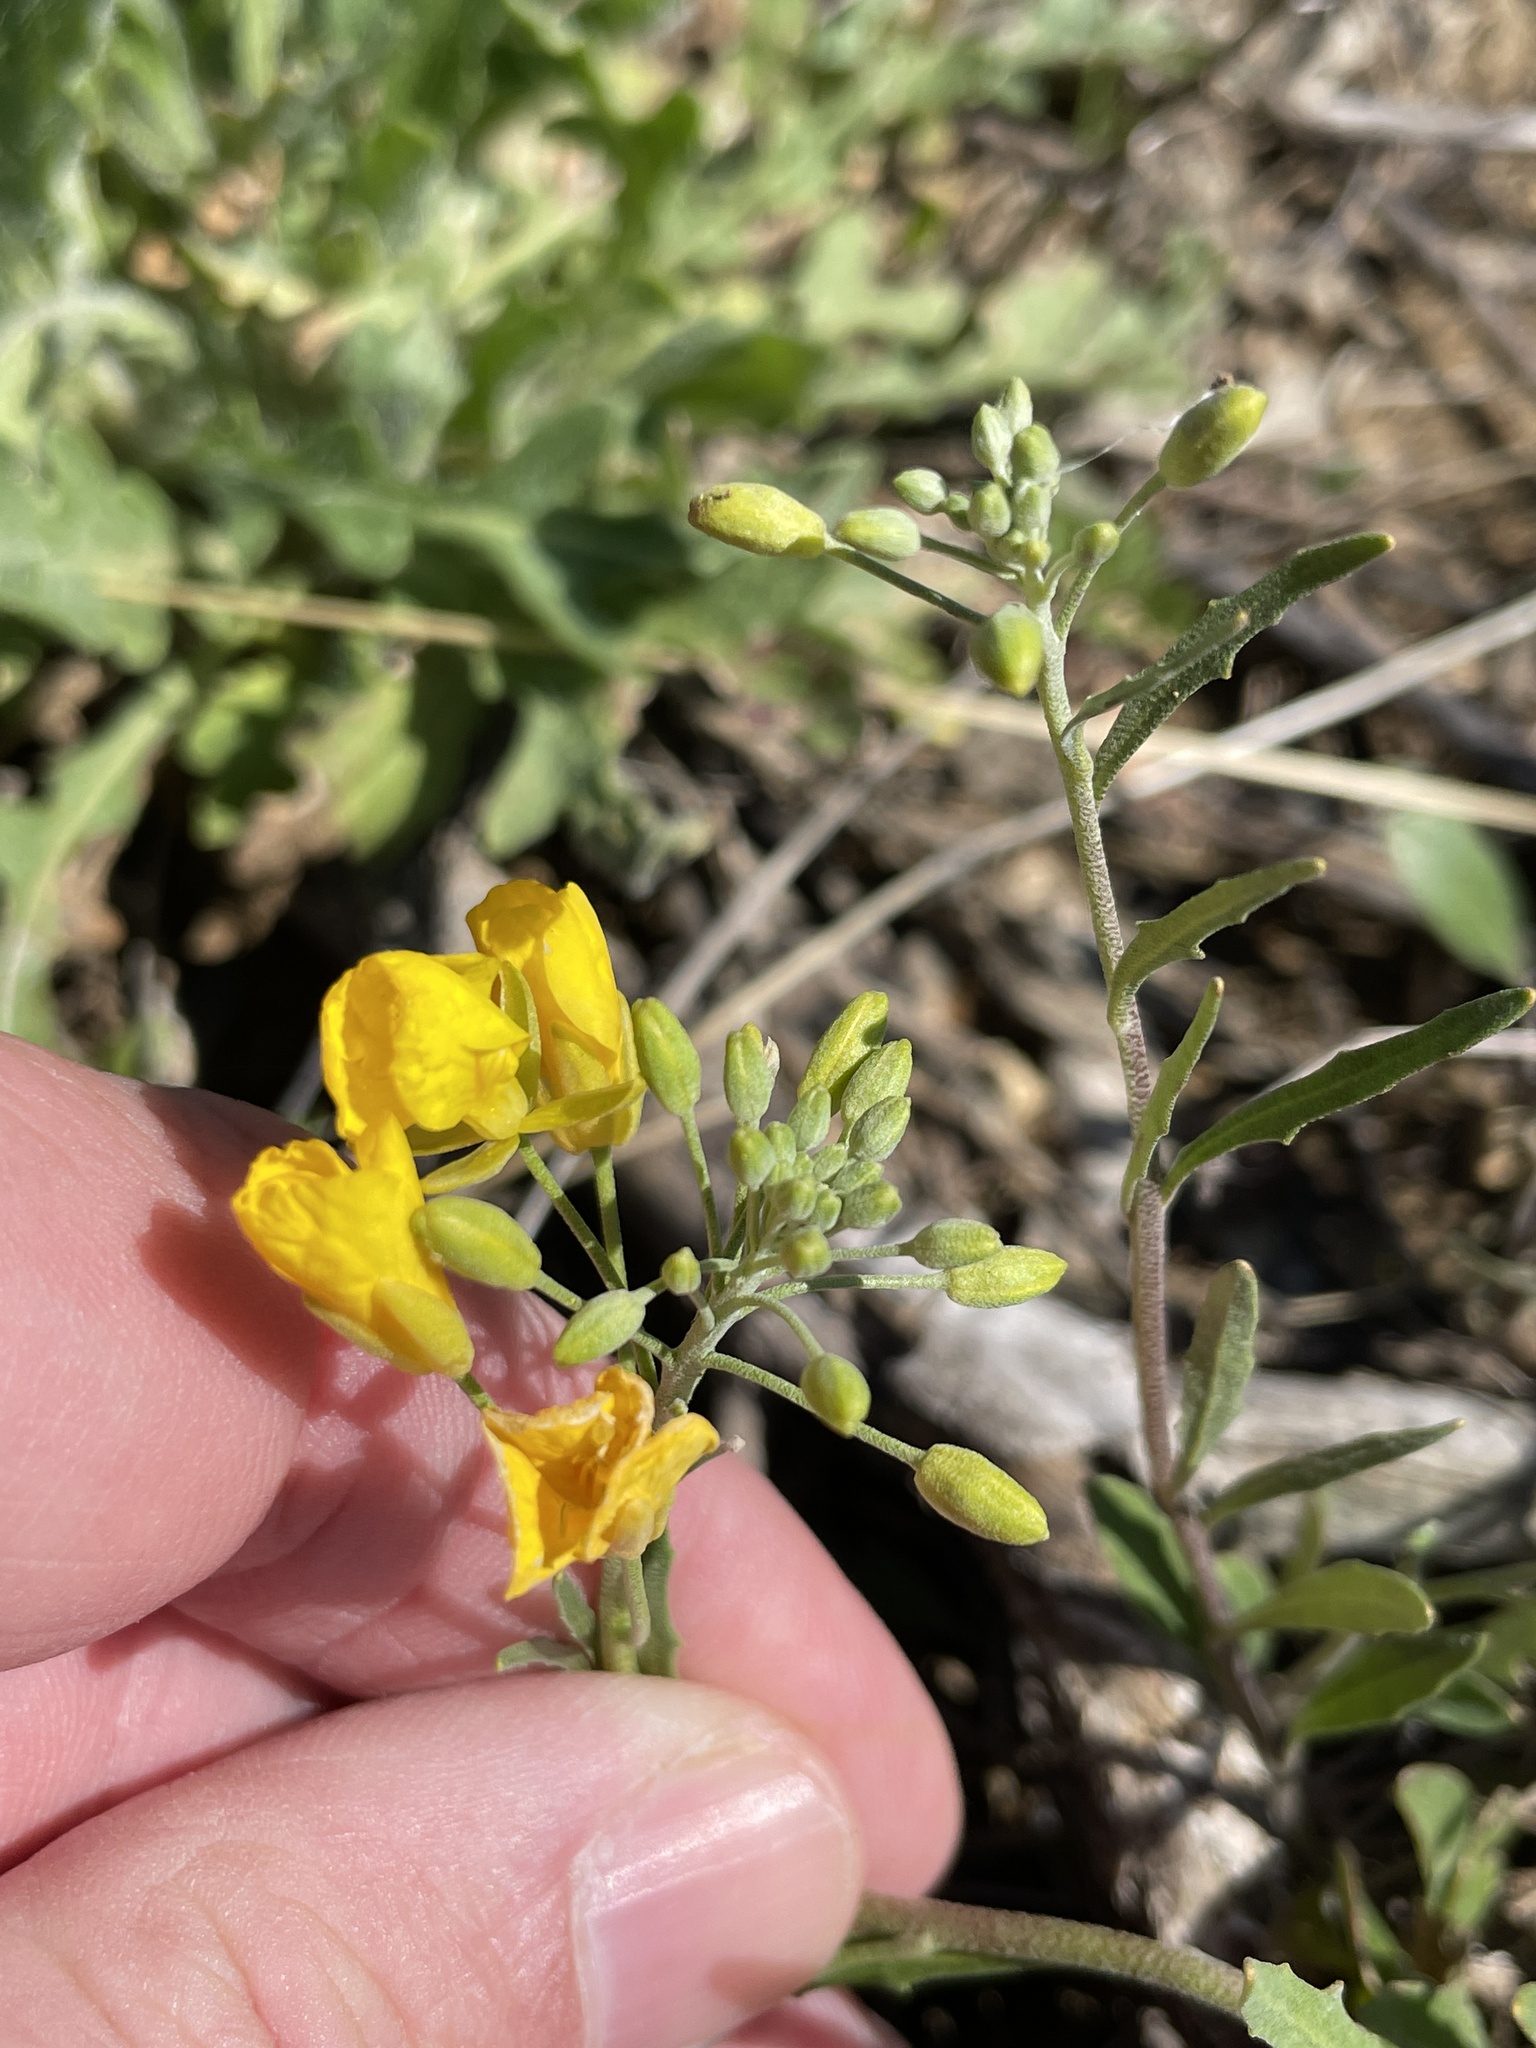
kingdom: Plantae
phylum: Tracheophyta
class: Magnoliopsida
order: Brassicales
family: Brassicaceae
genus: Physaria
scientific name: Physaria gracilis
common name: Spreading bladderpod
